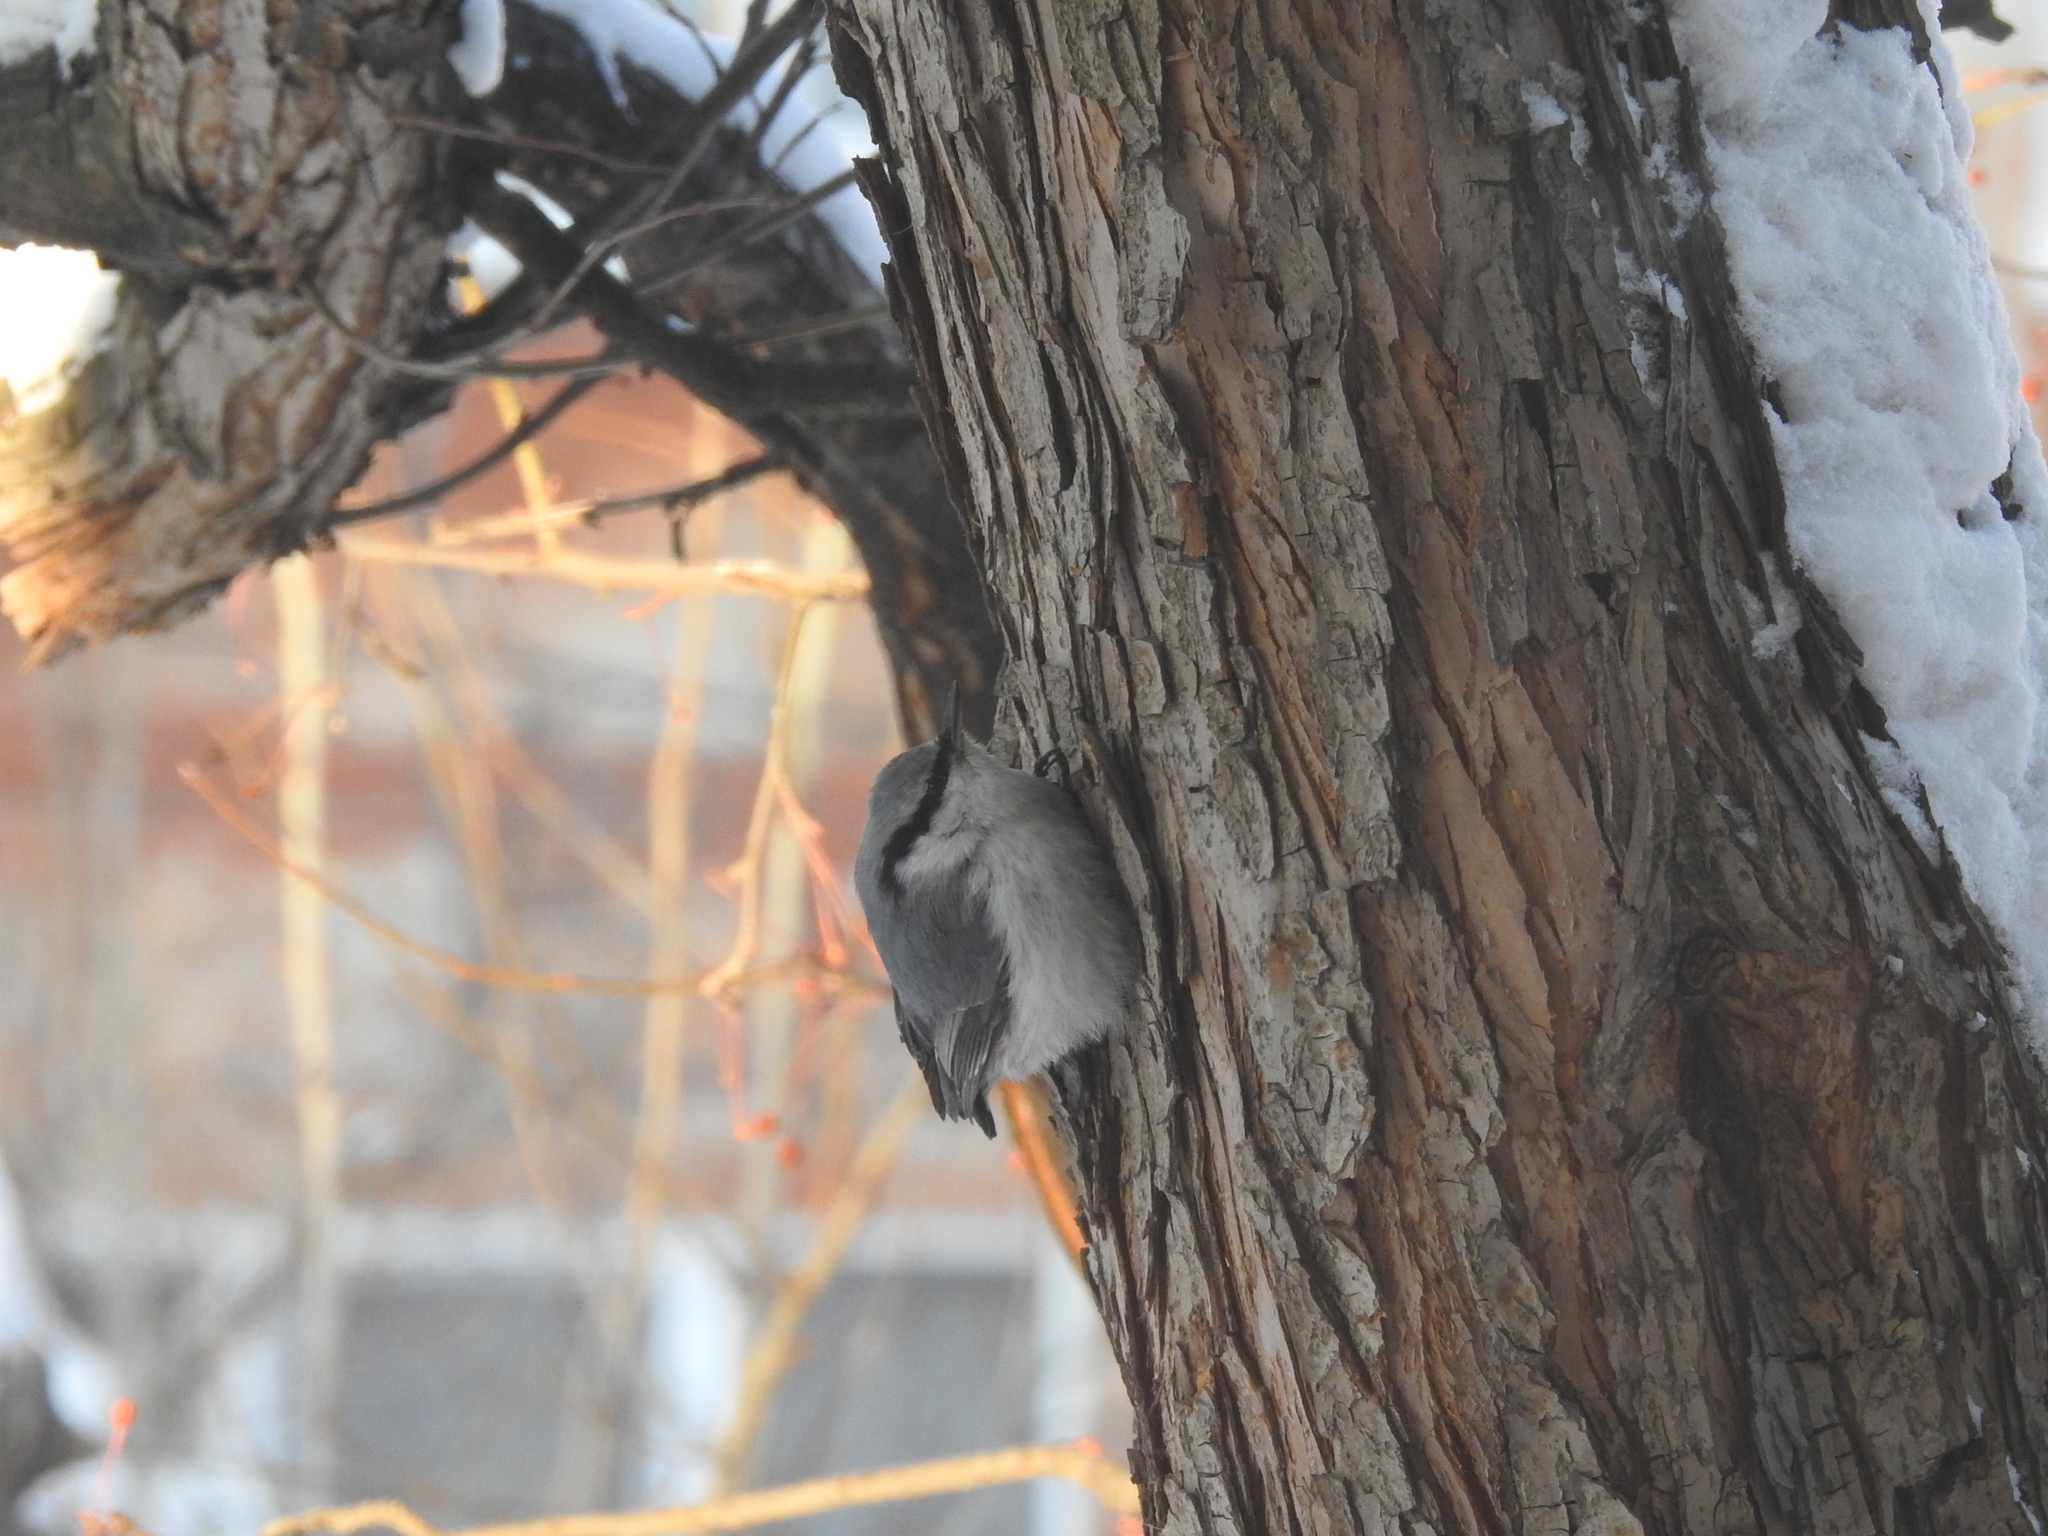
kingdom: Animalia
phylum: Chordata
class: Aves
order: Passeriformes
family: Sittidae
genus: Sitta
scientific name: Sitta europaea
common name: Eurasian nuthatch
